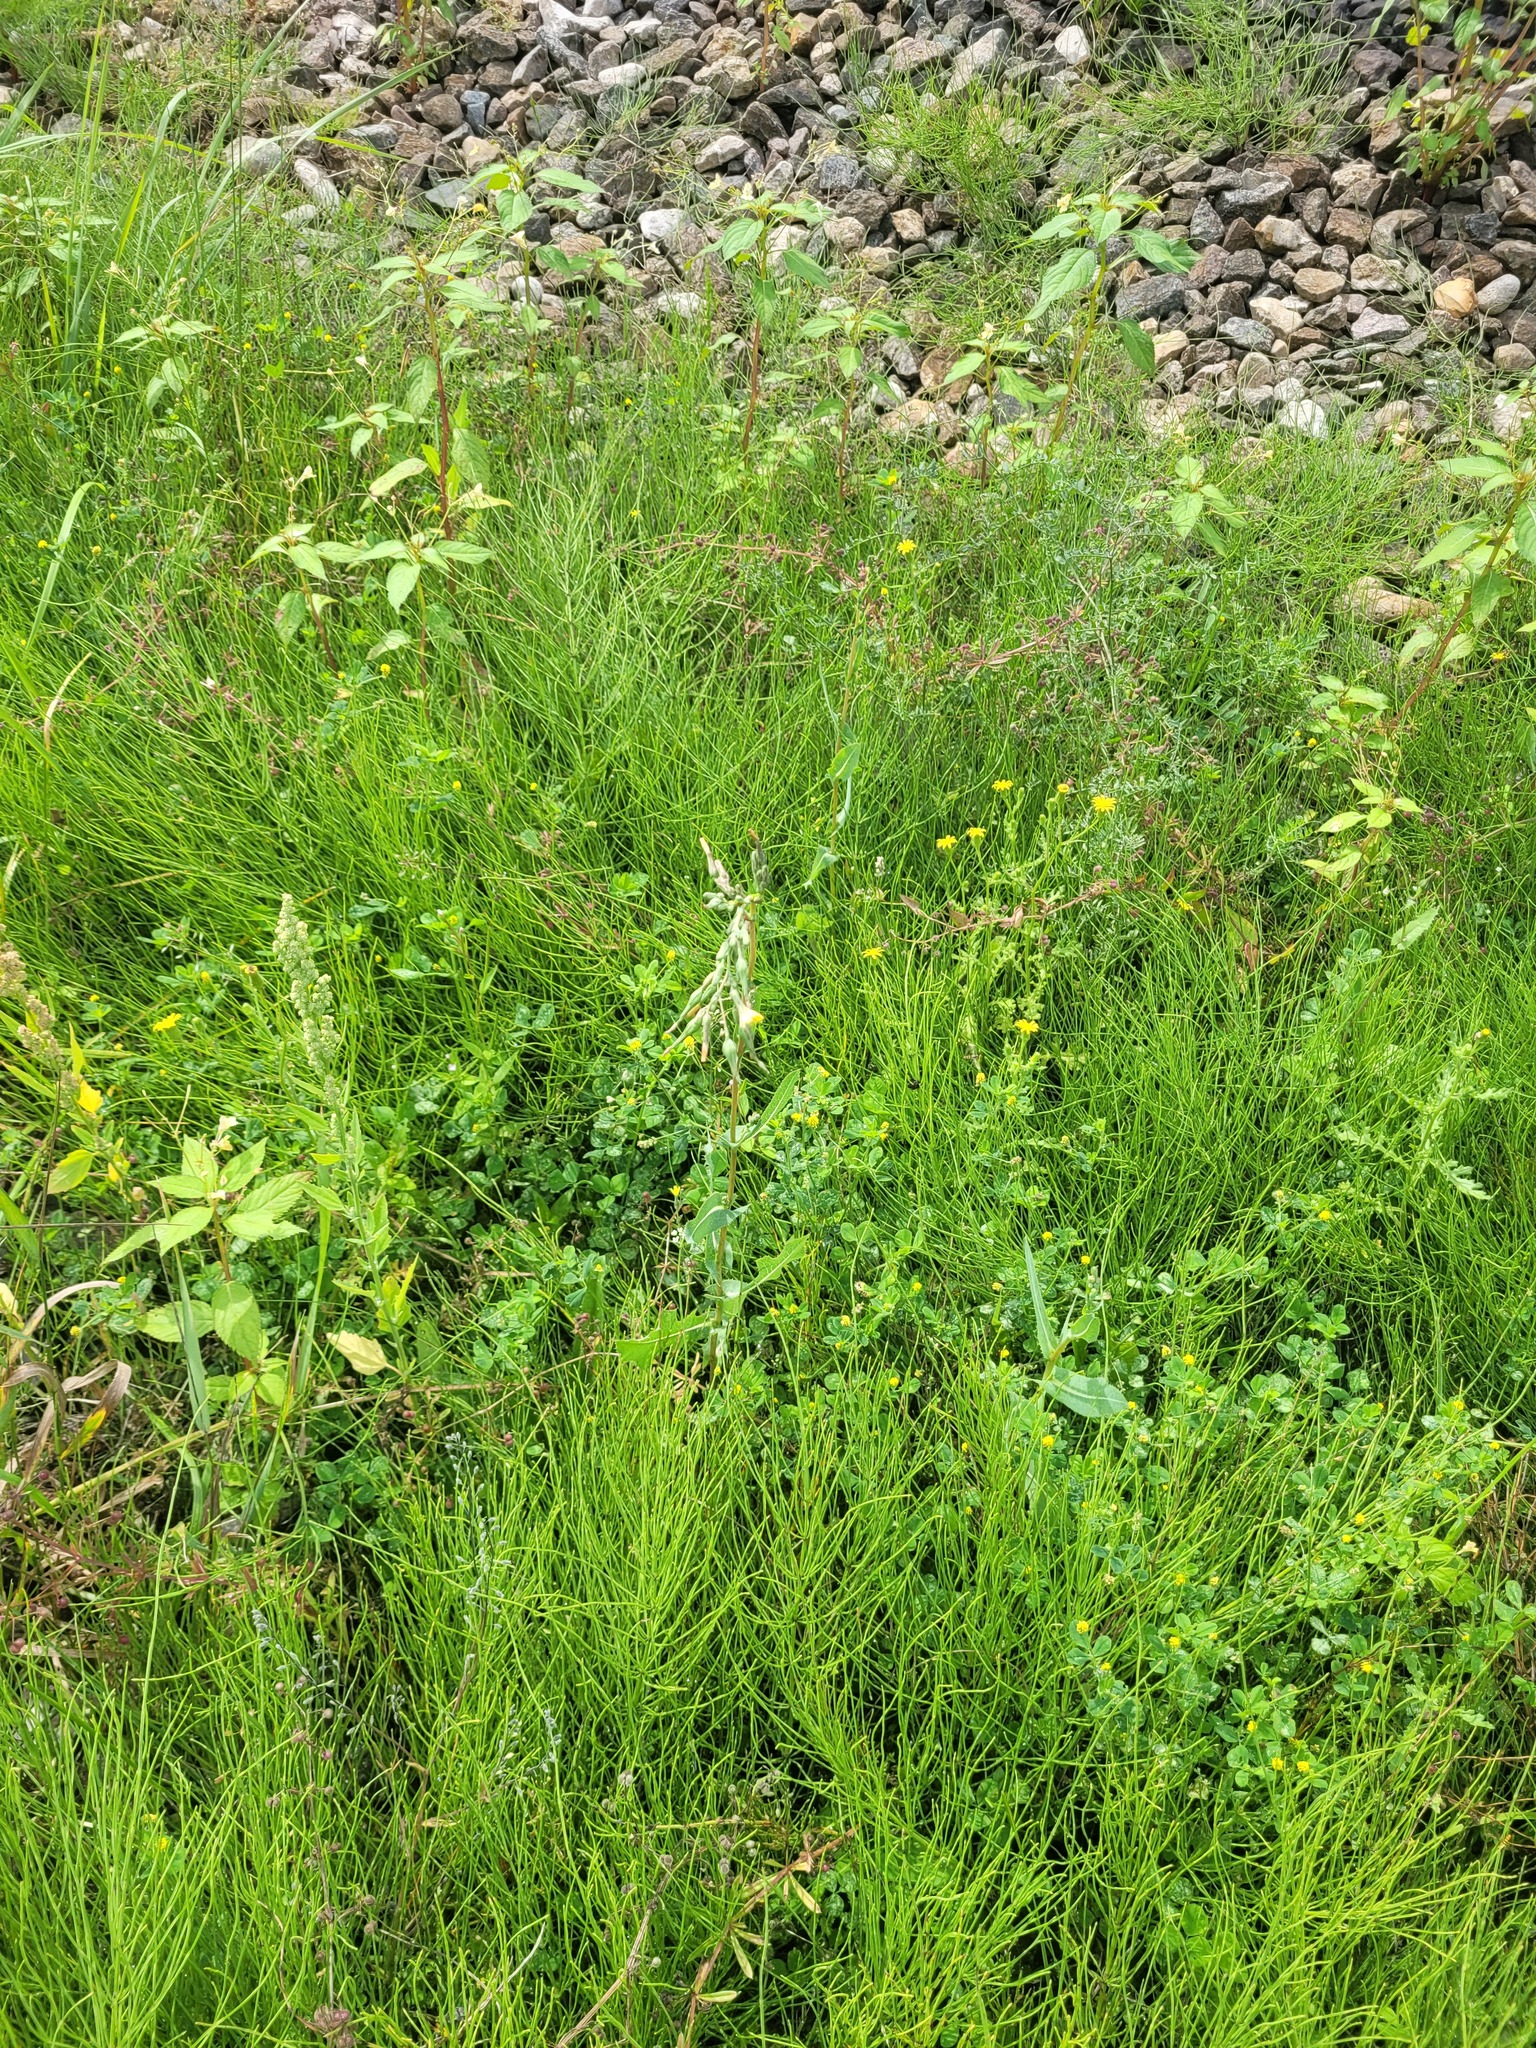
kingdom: Plantae
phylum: Tracheophyta
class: Magnoliopsida
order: Asterales
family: Asteraceae
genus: Lactuca
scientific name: Lactuca serriola
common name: Prickly lettuce
